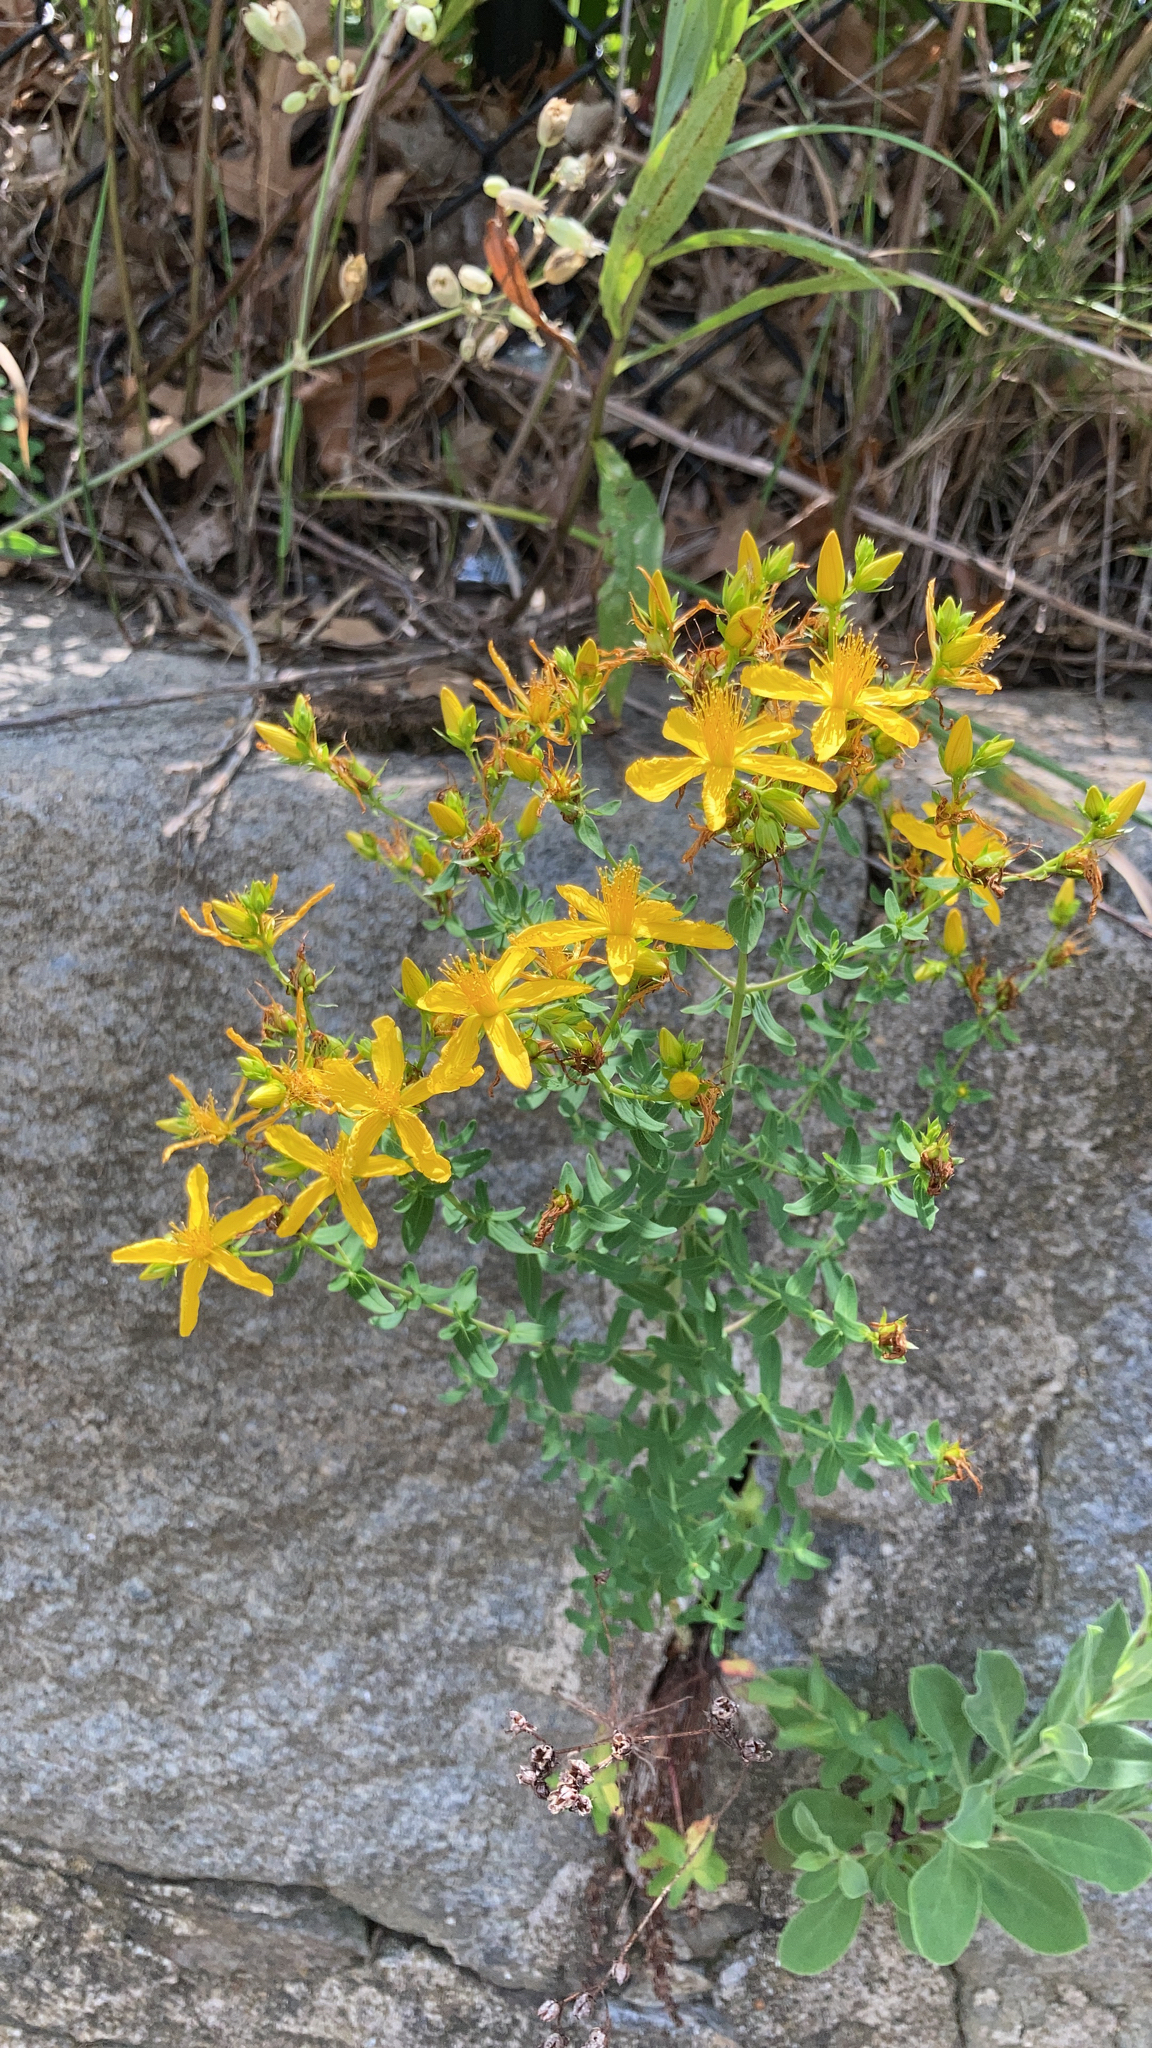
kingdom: Plantae
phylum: Tracheophyta
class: Magnoliopsida
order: Malpighiales
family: Hypericaceae
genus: Hypericum
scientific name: Hypericum perforatum
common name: Common st. johnswort
